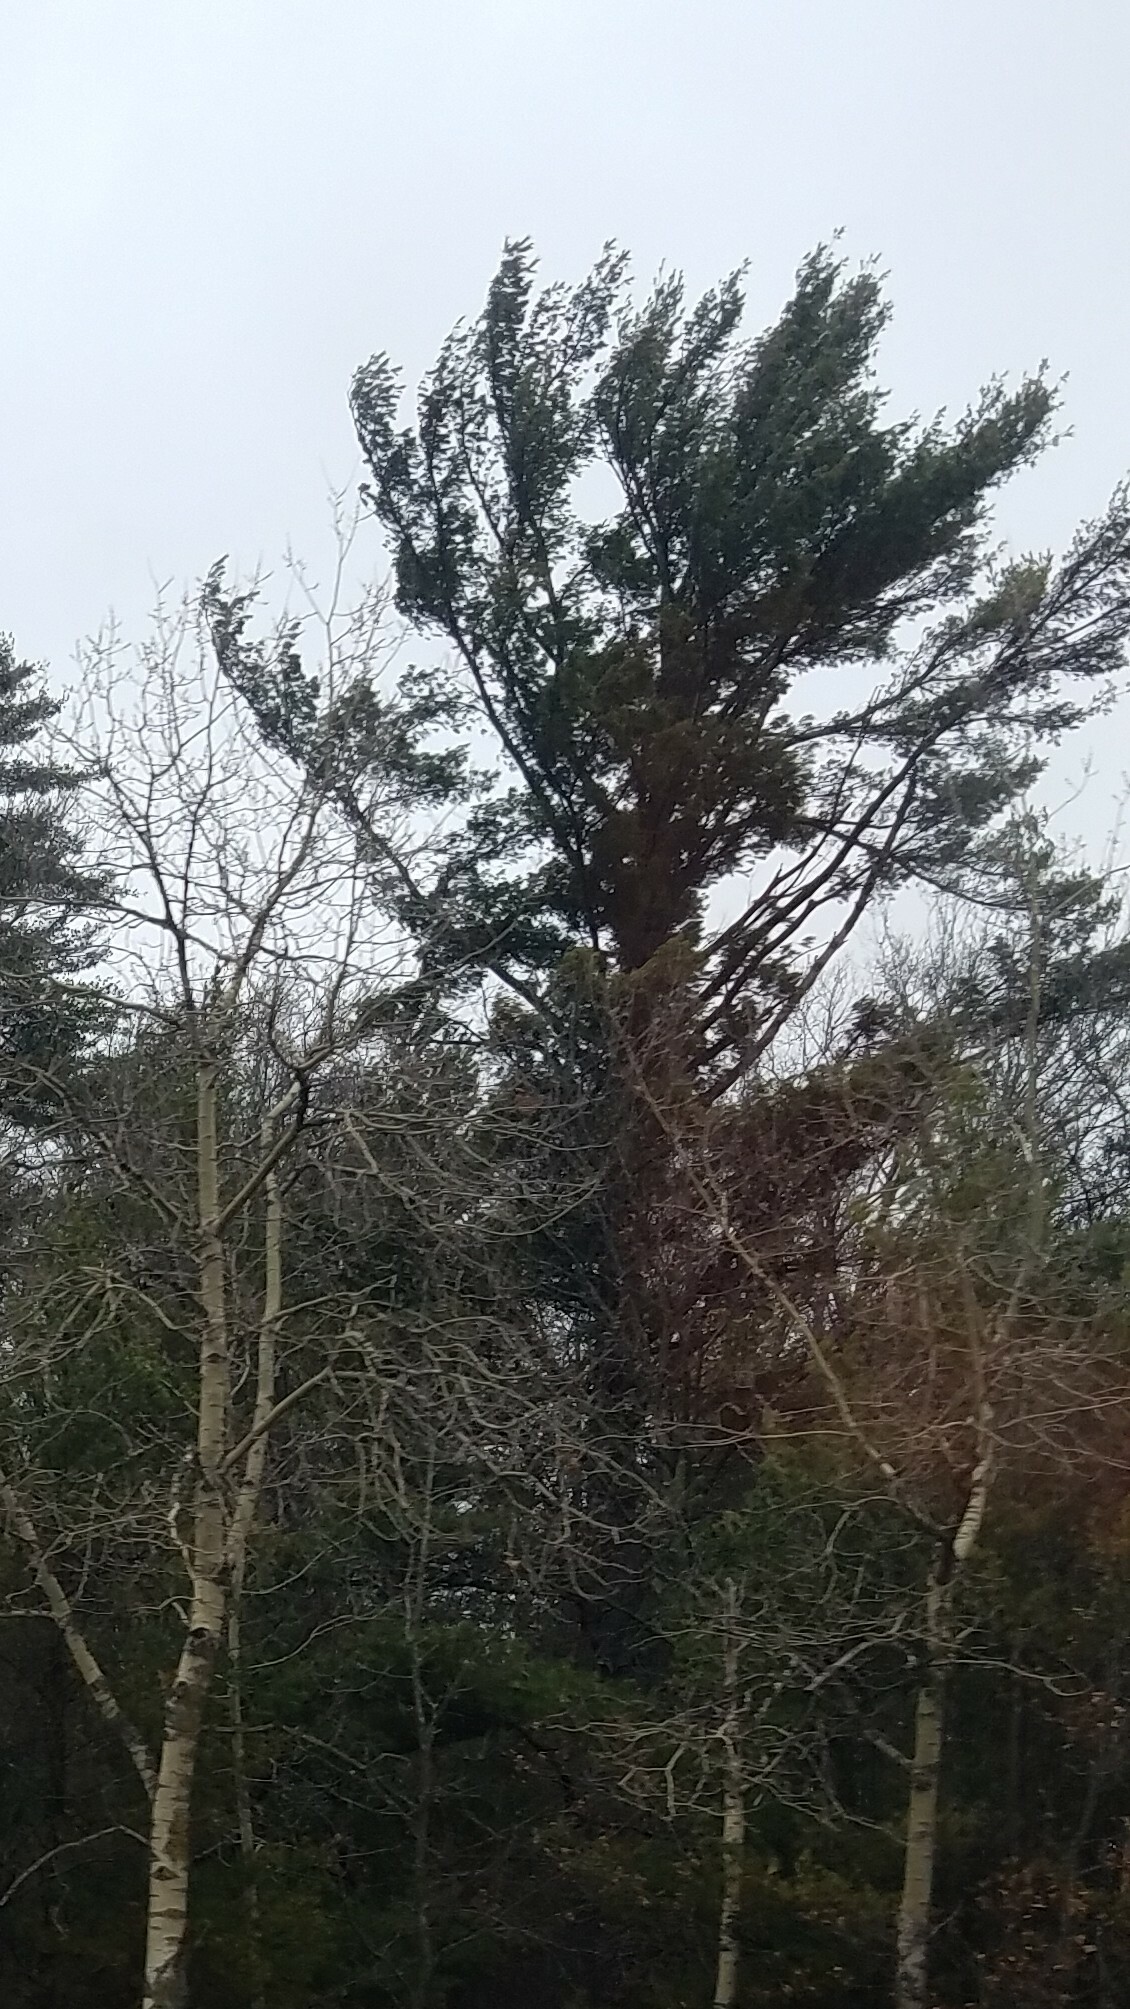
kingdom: Plantae
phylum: Tracheophyta
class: Pinopsida
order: Pinales
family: Pinaceae
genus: Pinus
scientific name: Pinus strobus
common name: Weymouth pine
